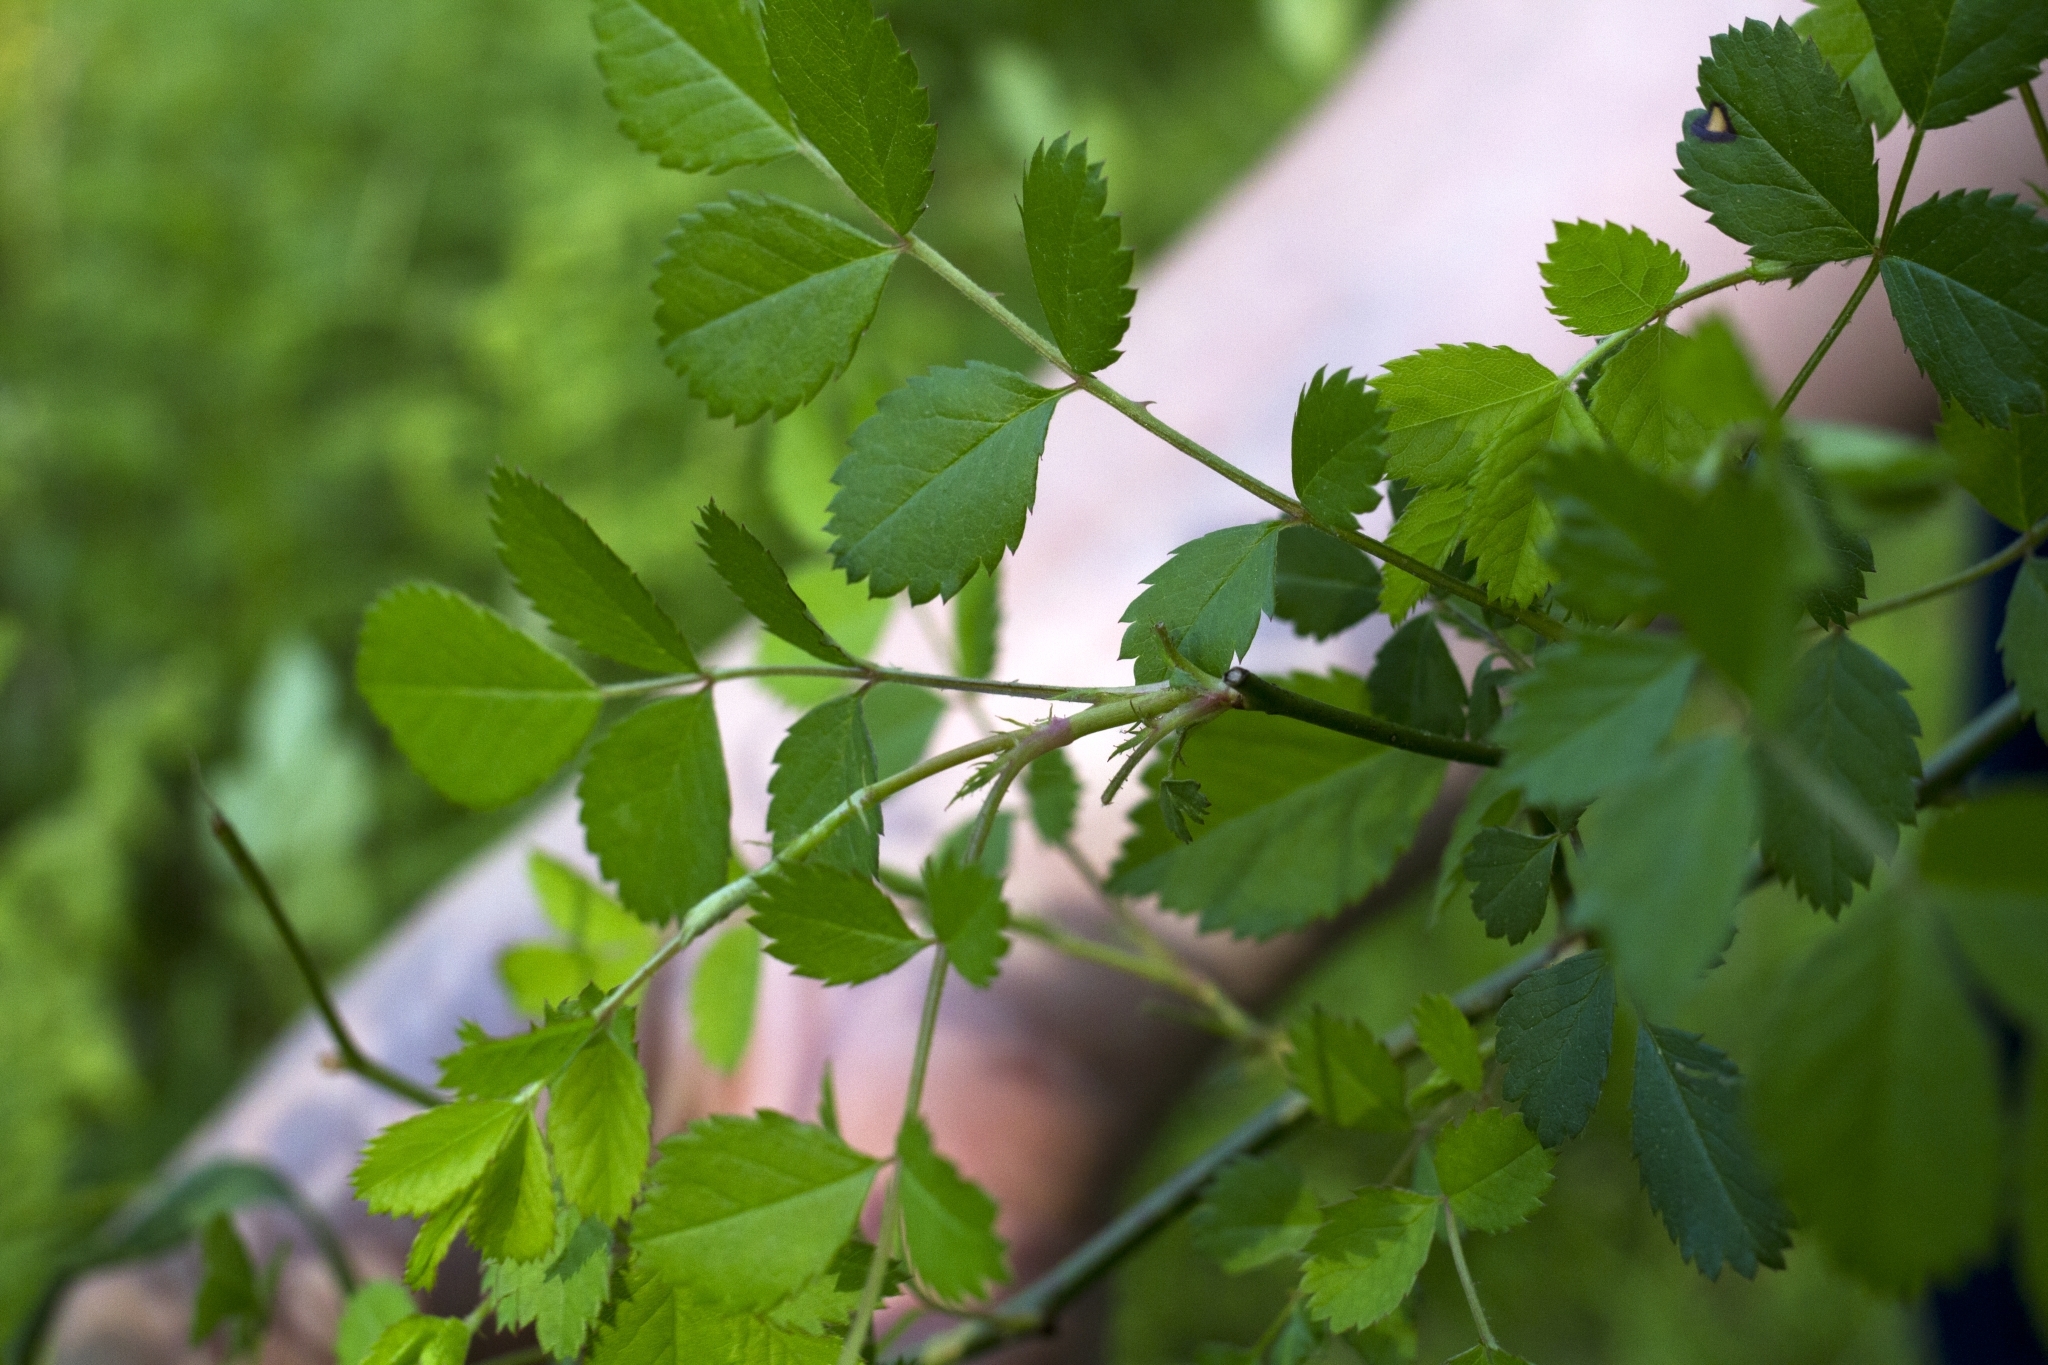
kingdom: Plantae
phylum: Tracheophyta
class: Magnoliopsida
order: Rosales
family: Rosaceae
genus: Rosa
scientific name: Rosa multiflora
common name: Multiflora rose
